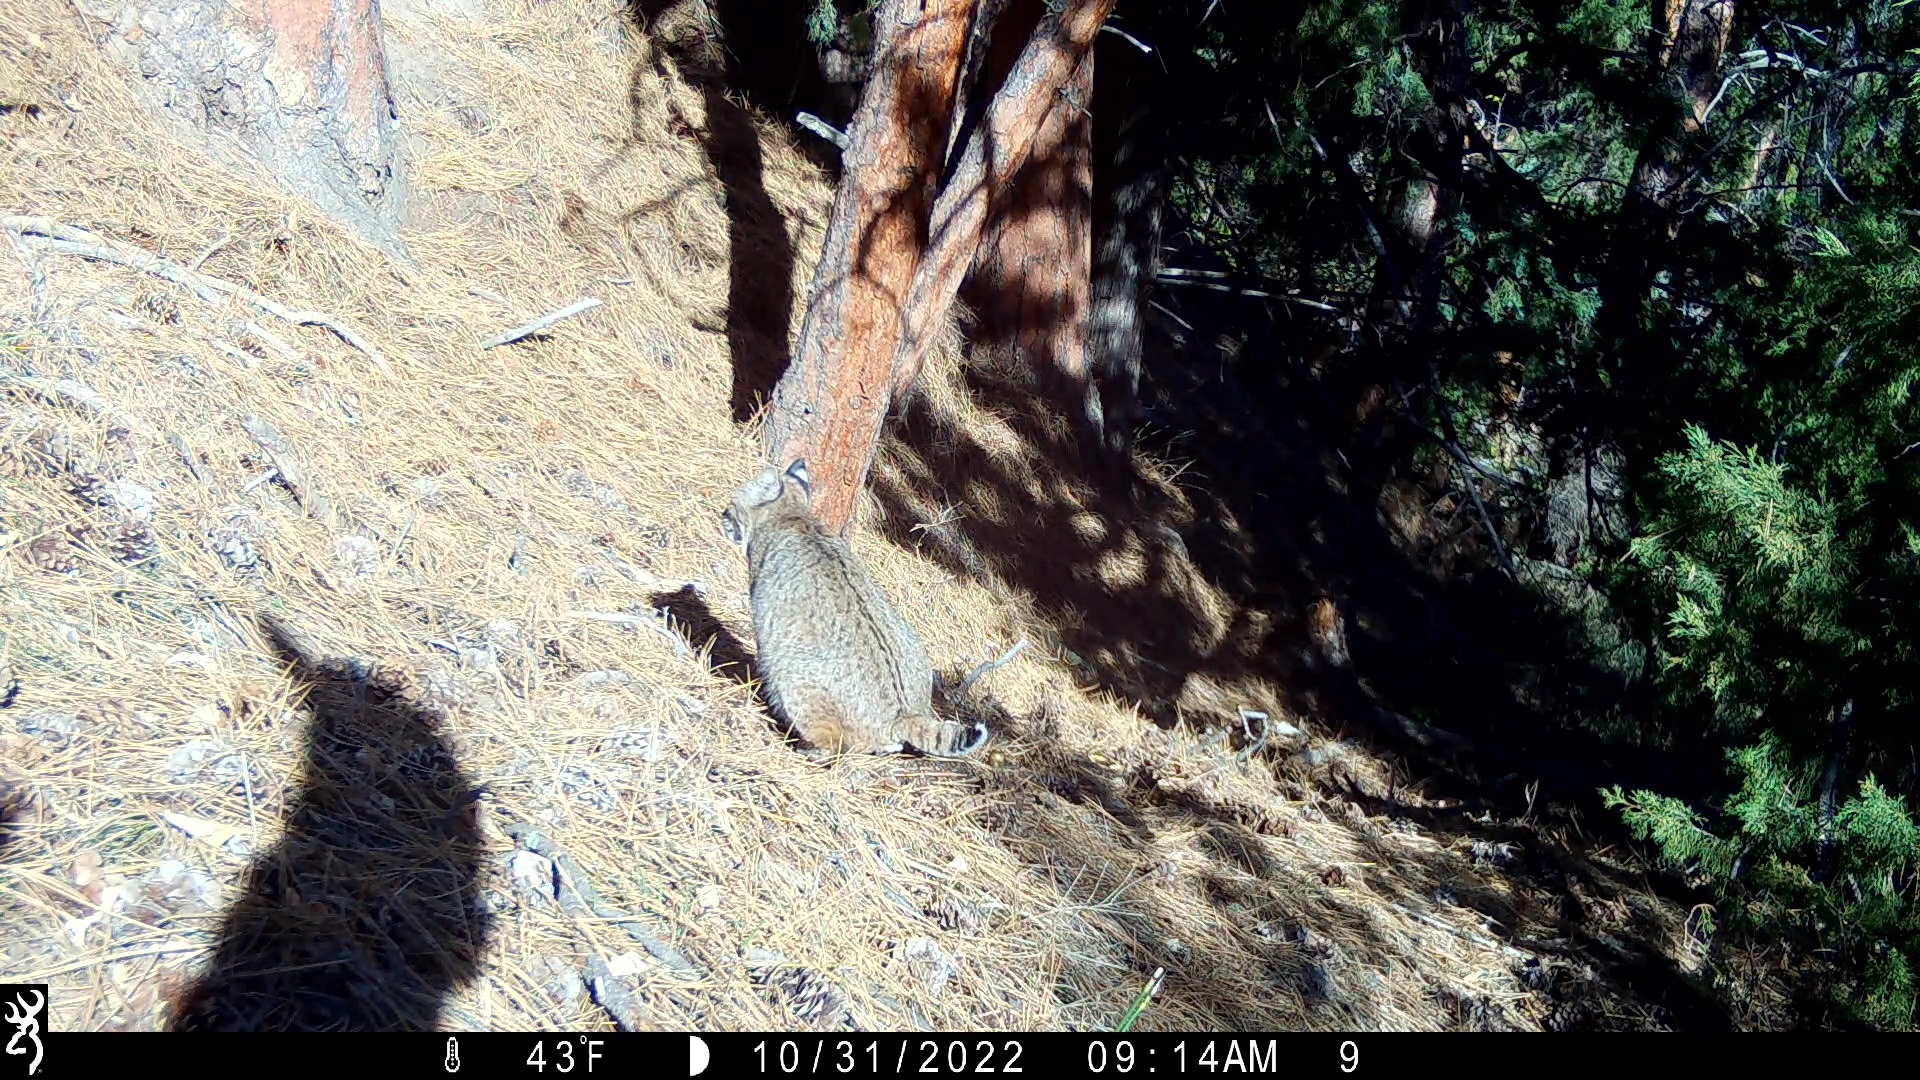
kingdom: Animalia
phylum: Chordata
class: Mammalia
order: Carnivora
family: Felidae
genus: Lynx
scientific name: Lynx rufus
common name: Bobcat
